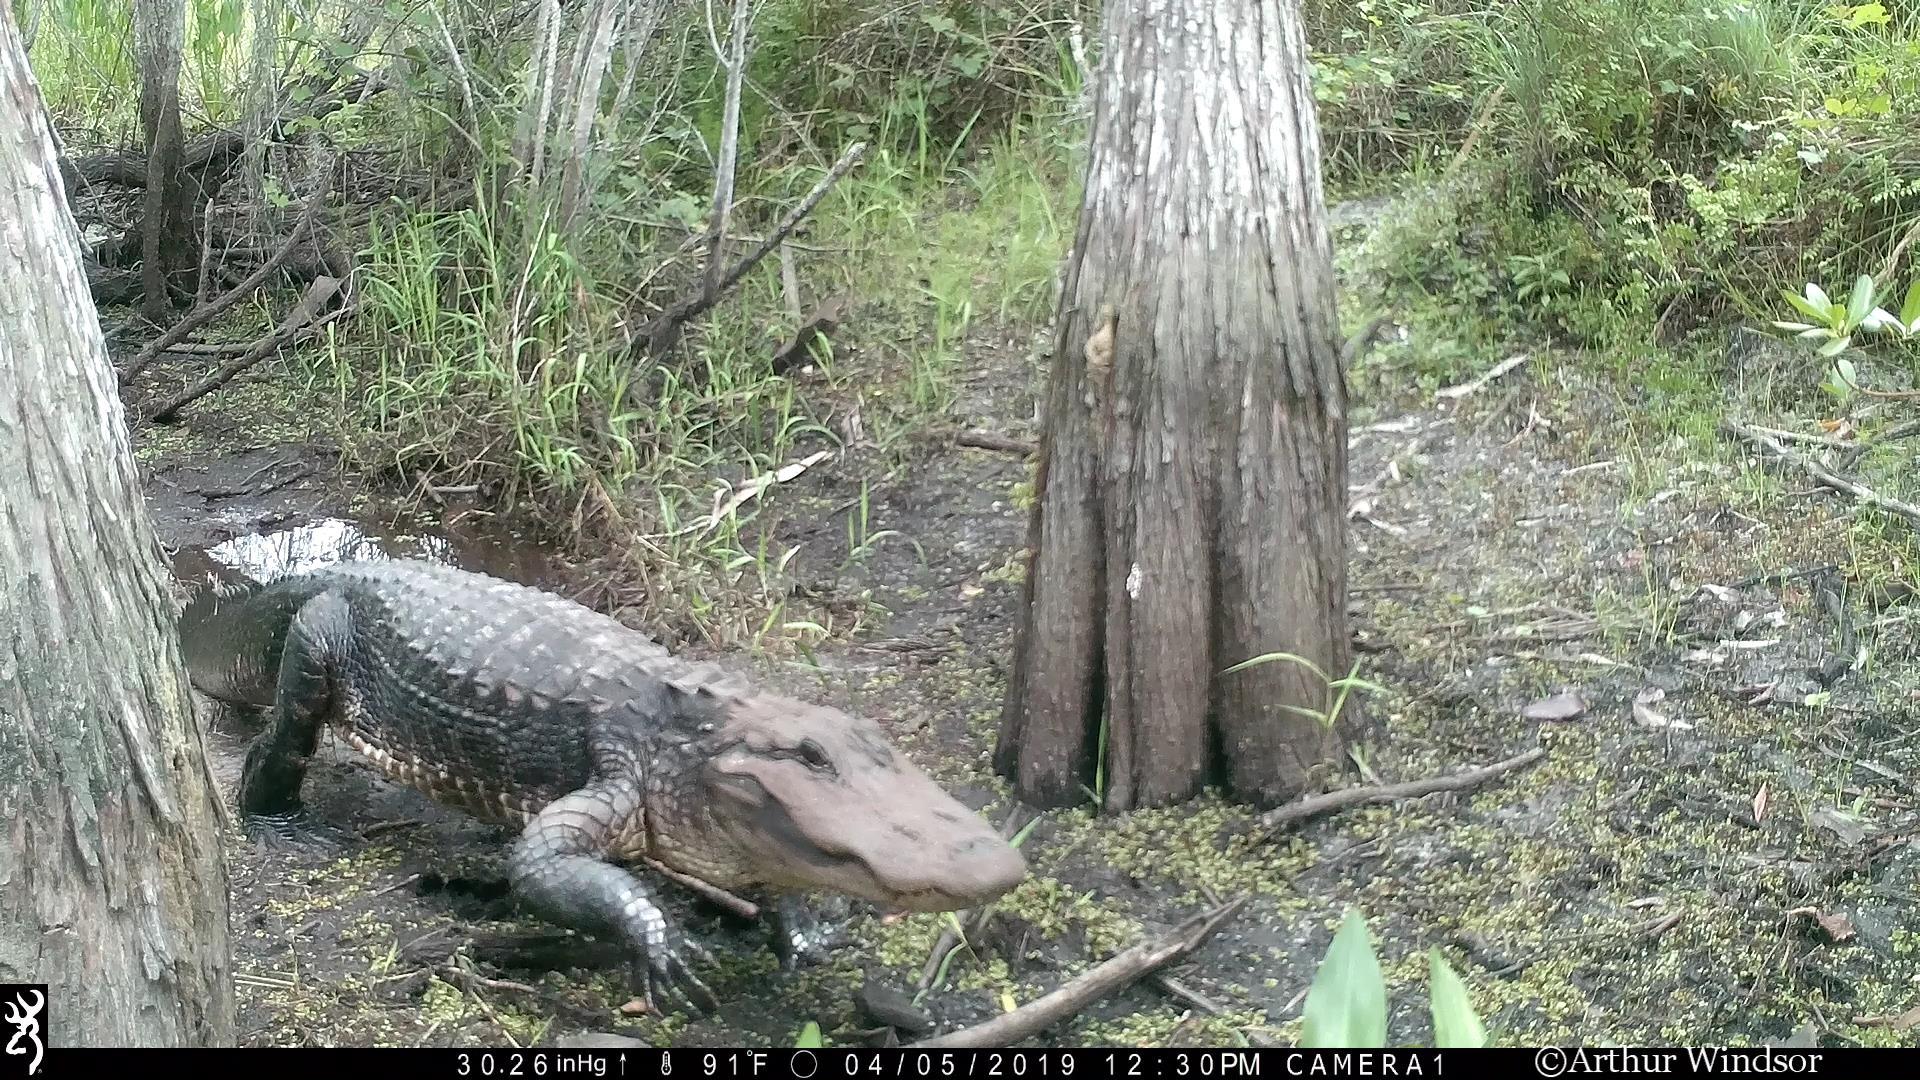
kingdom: Animalia
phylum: Chordata
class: Crocodylia
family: Alligatoridae
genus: Alligator
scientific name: Alligator mississippiensis
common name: American alligator
